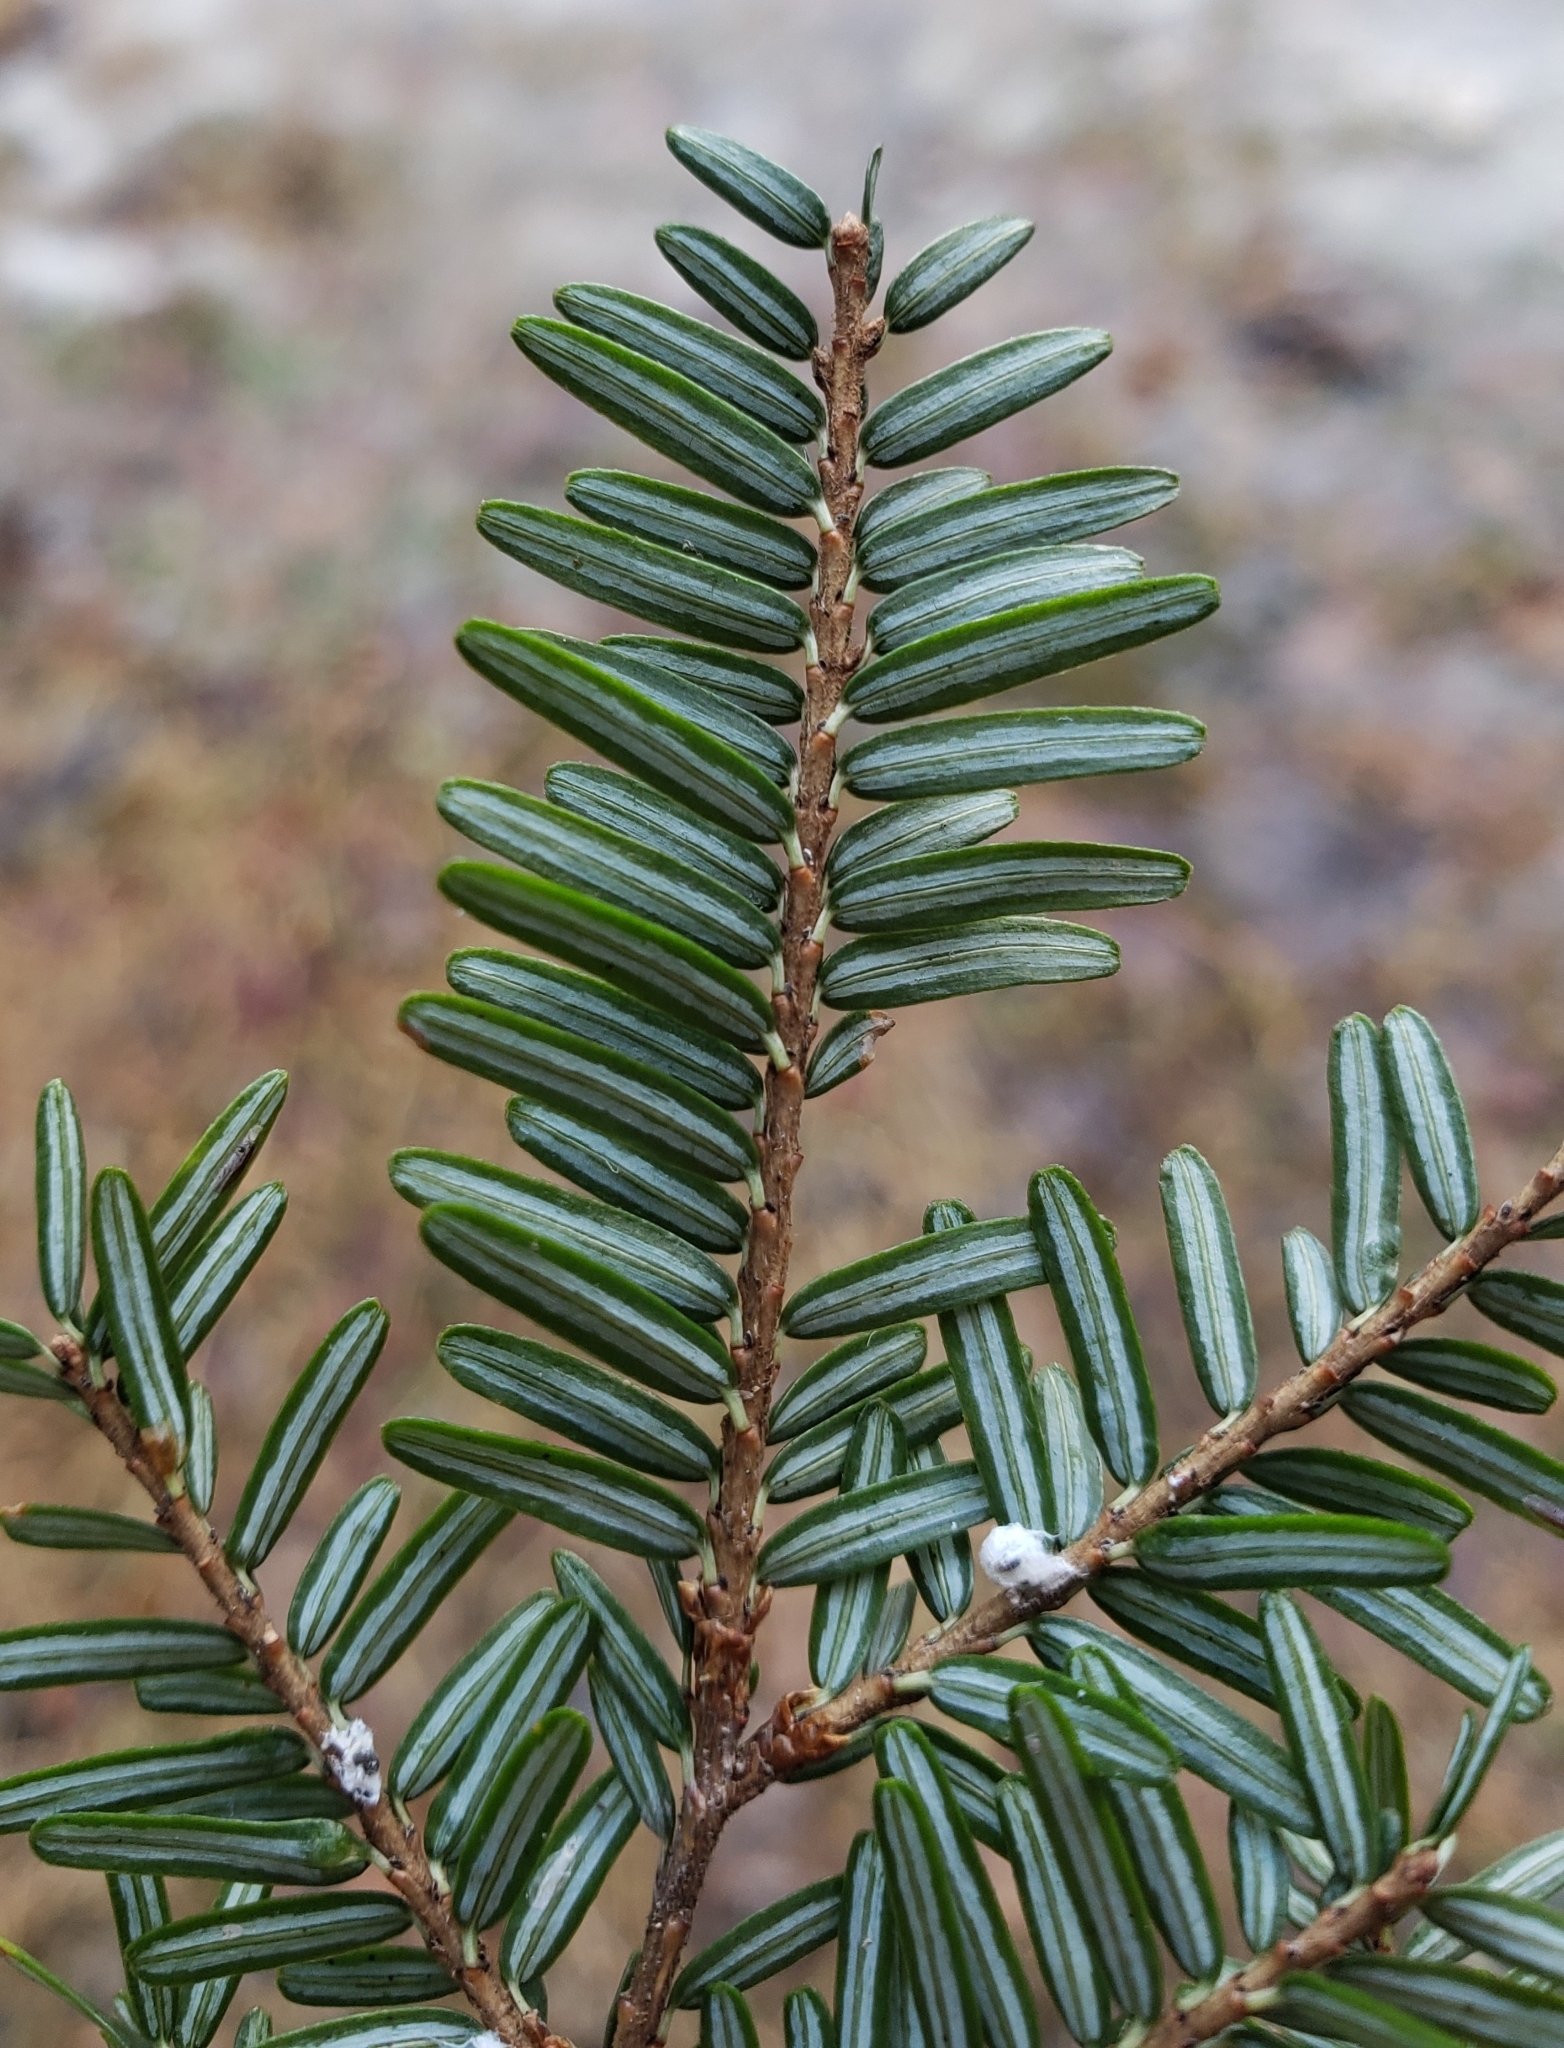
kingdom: Plantae
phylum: Tracheophyta
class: Pinopsida
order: Pinales
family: Pinaceae
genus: Tsuga
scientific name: Tsuga canadensis
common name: Eastern hemlock
